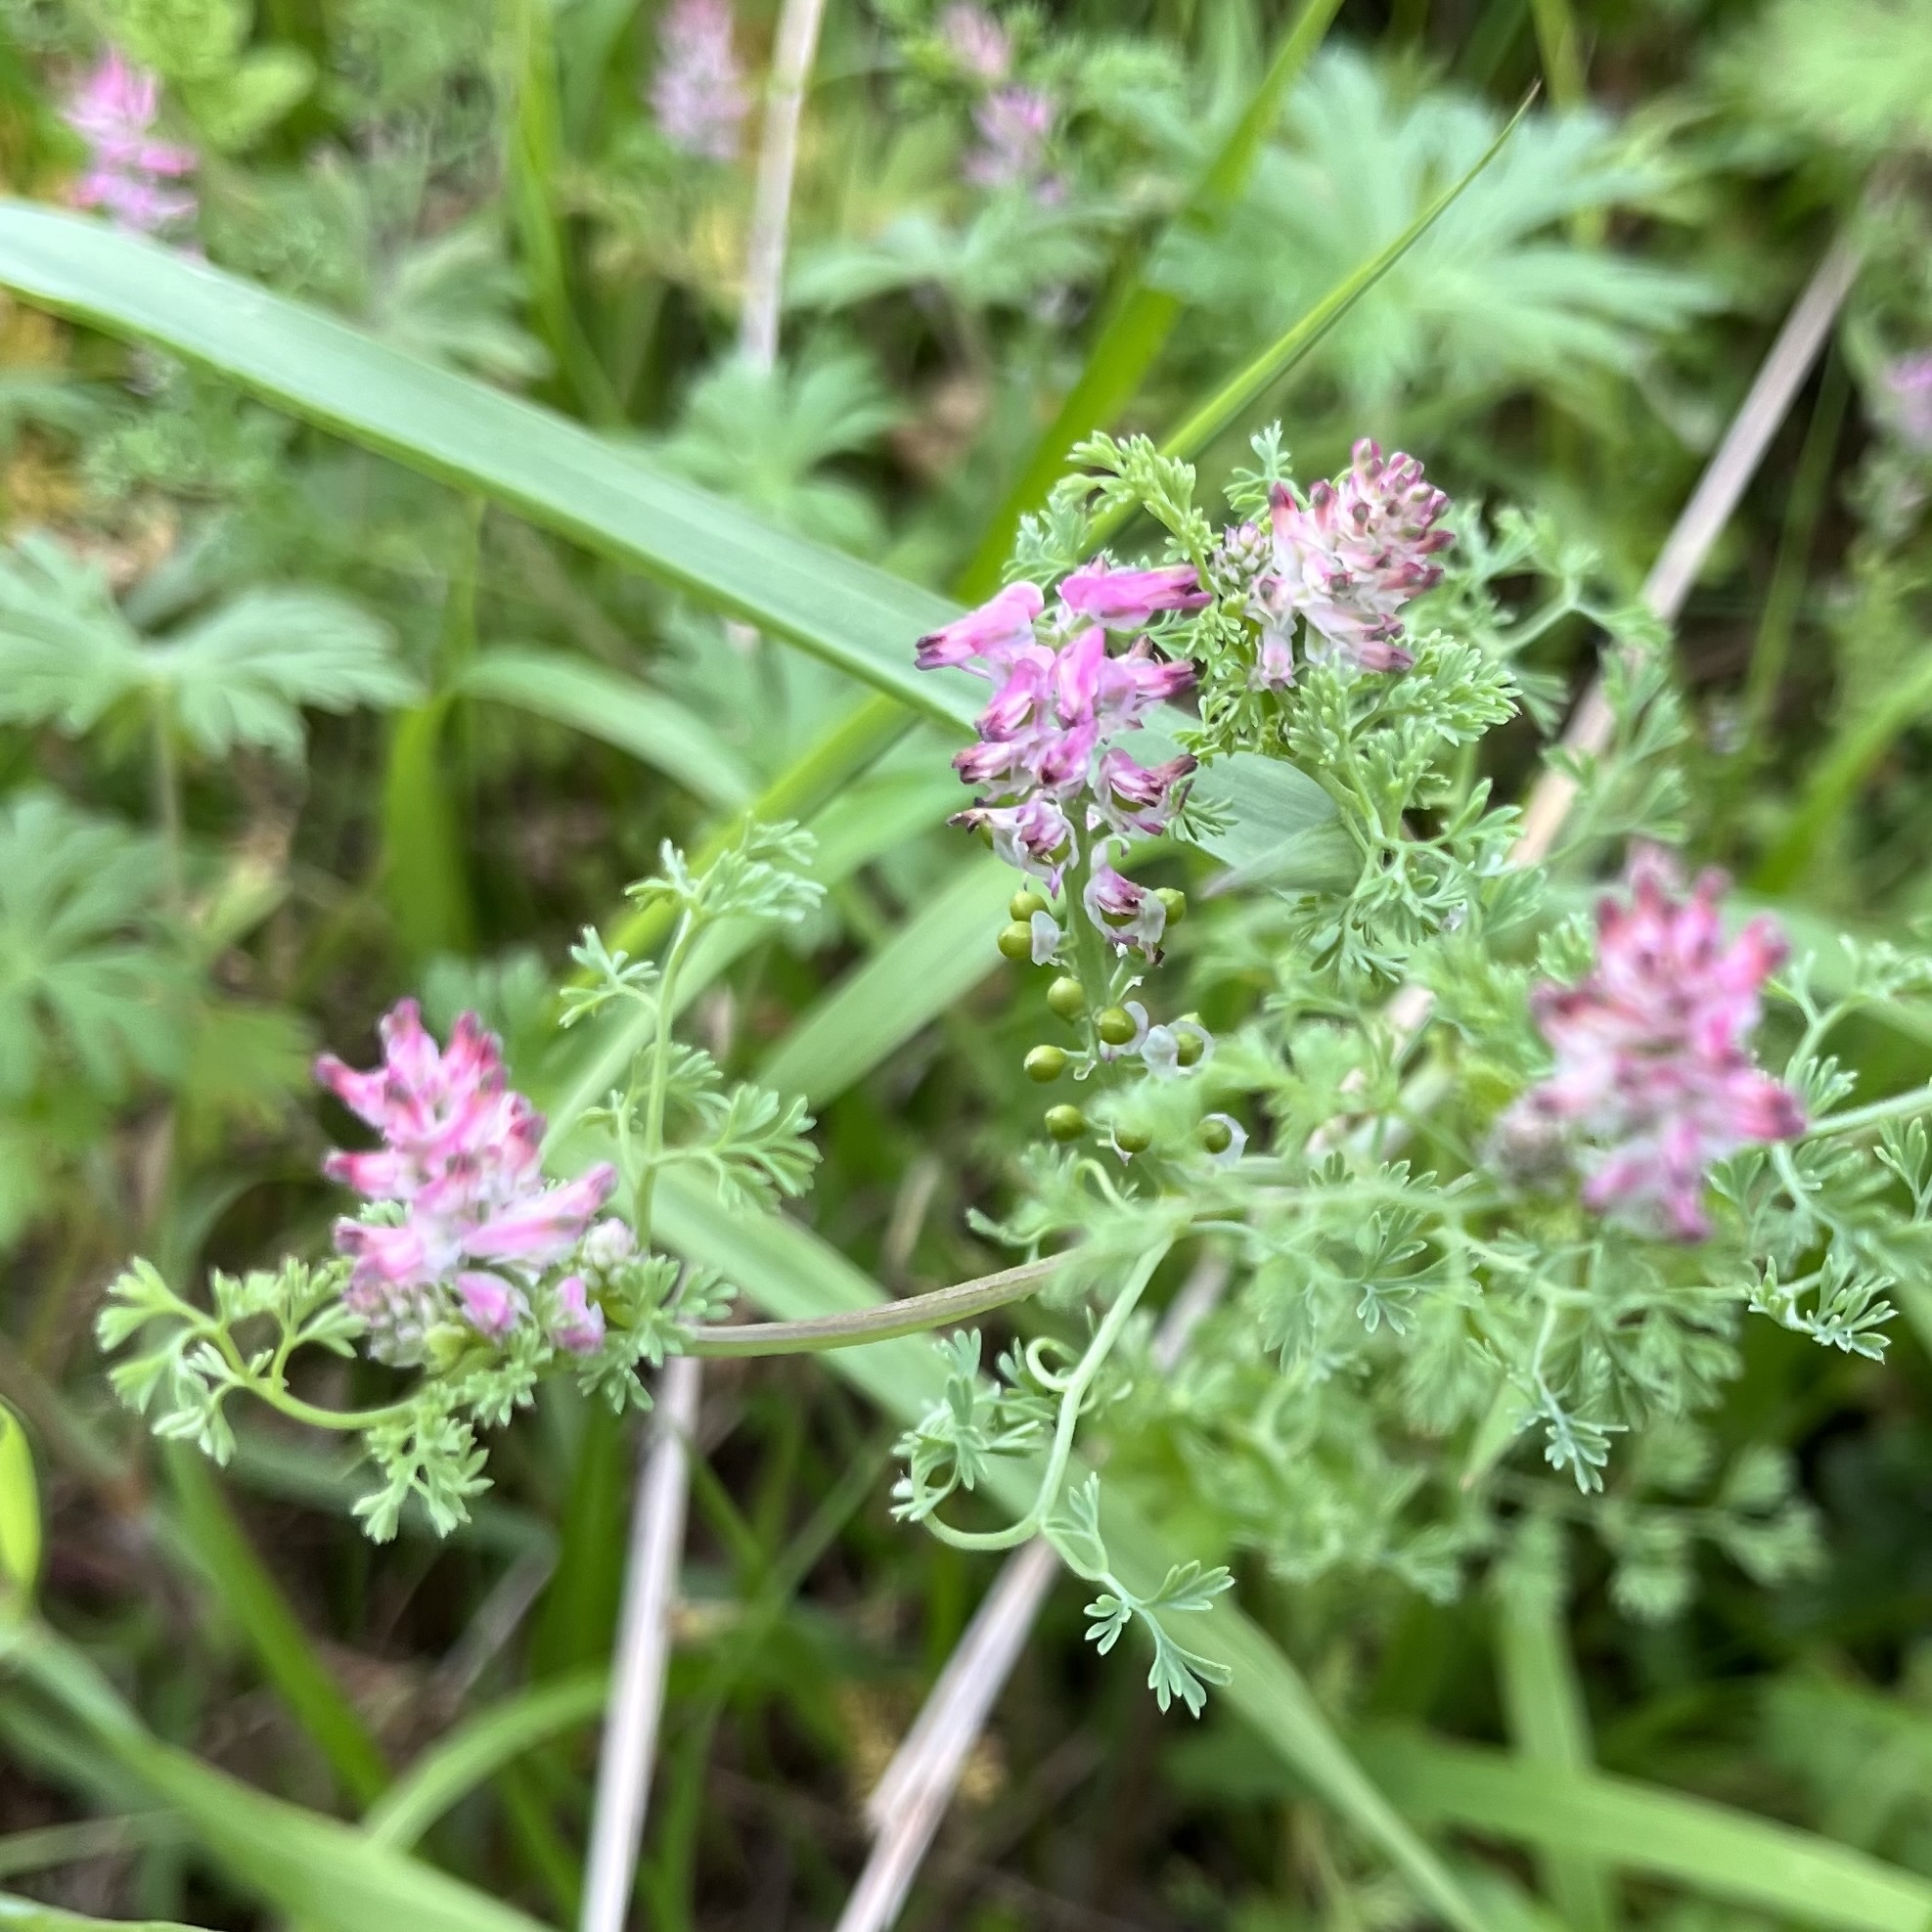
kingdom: Plantae
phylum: Tracheophyta
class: Magnoliopsida
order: Ranunculales
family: Papaveraceae
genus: Fumaria
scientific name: Fumaria densiflora
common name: Dense-flowered fumitory
